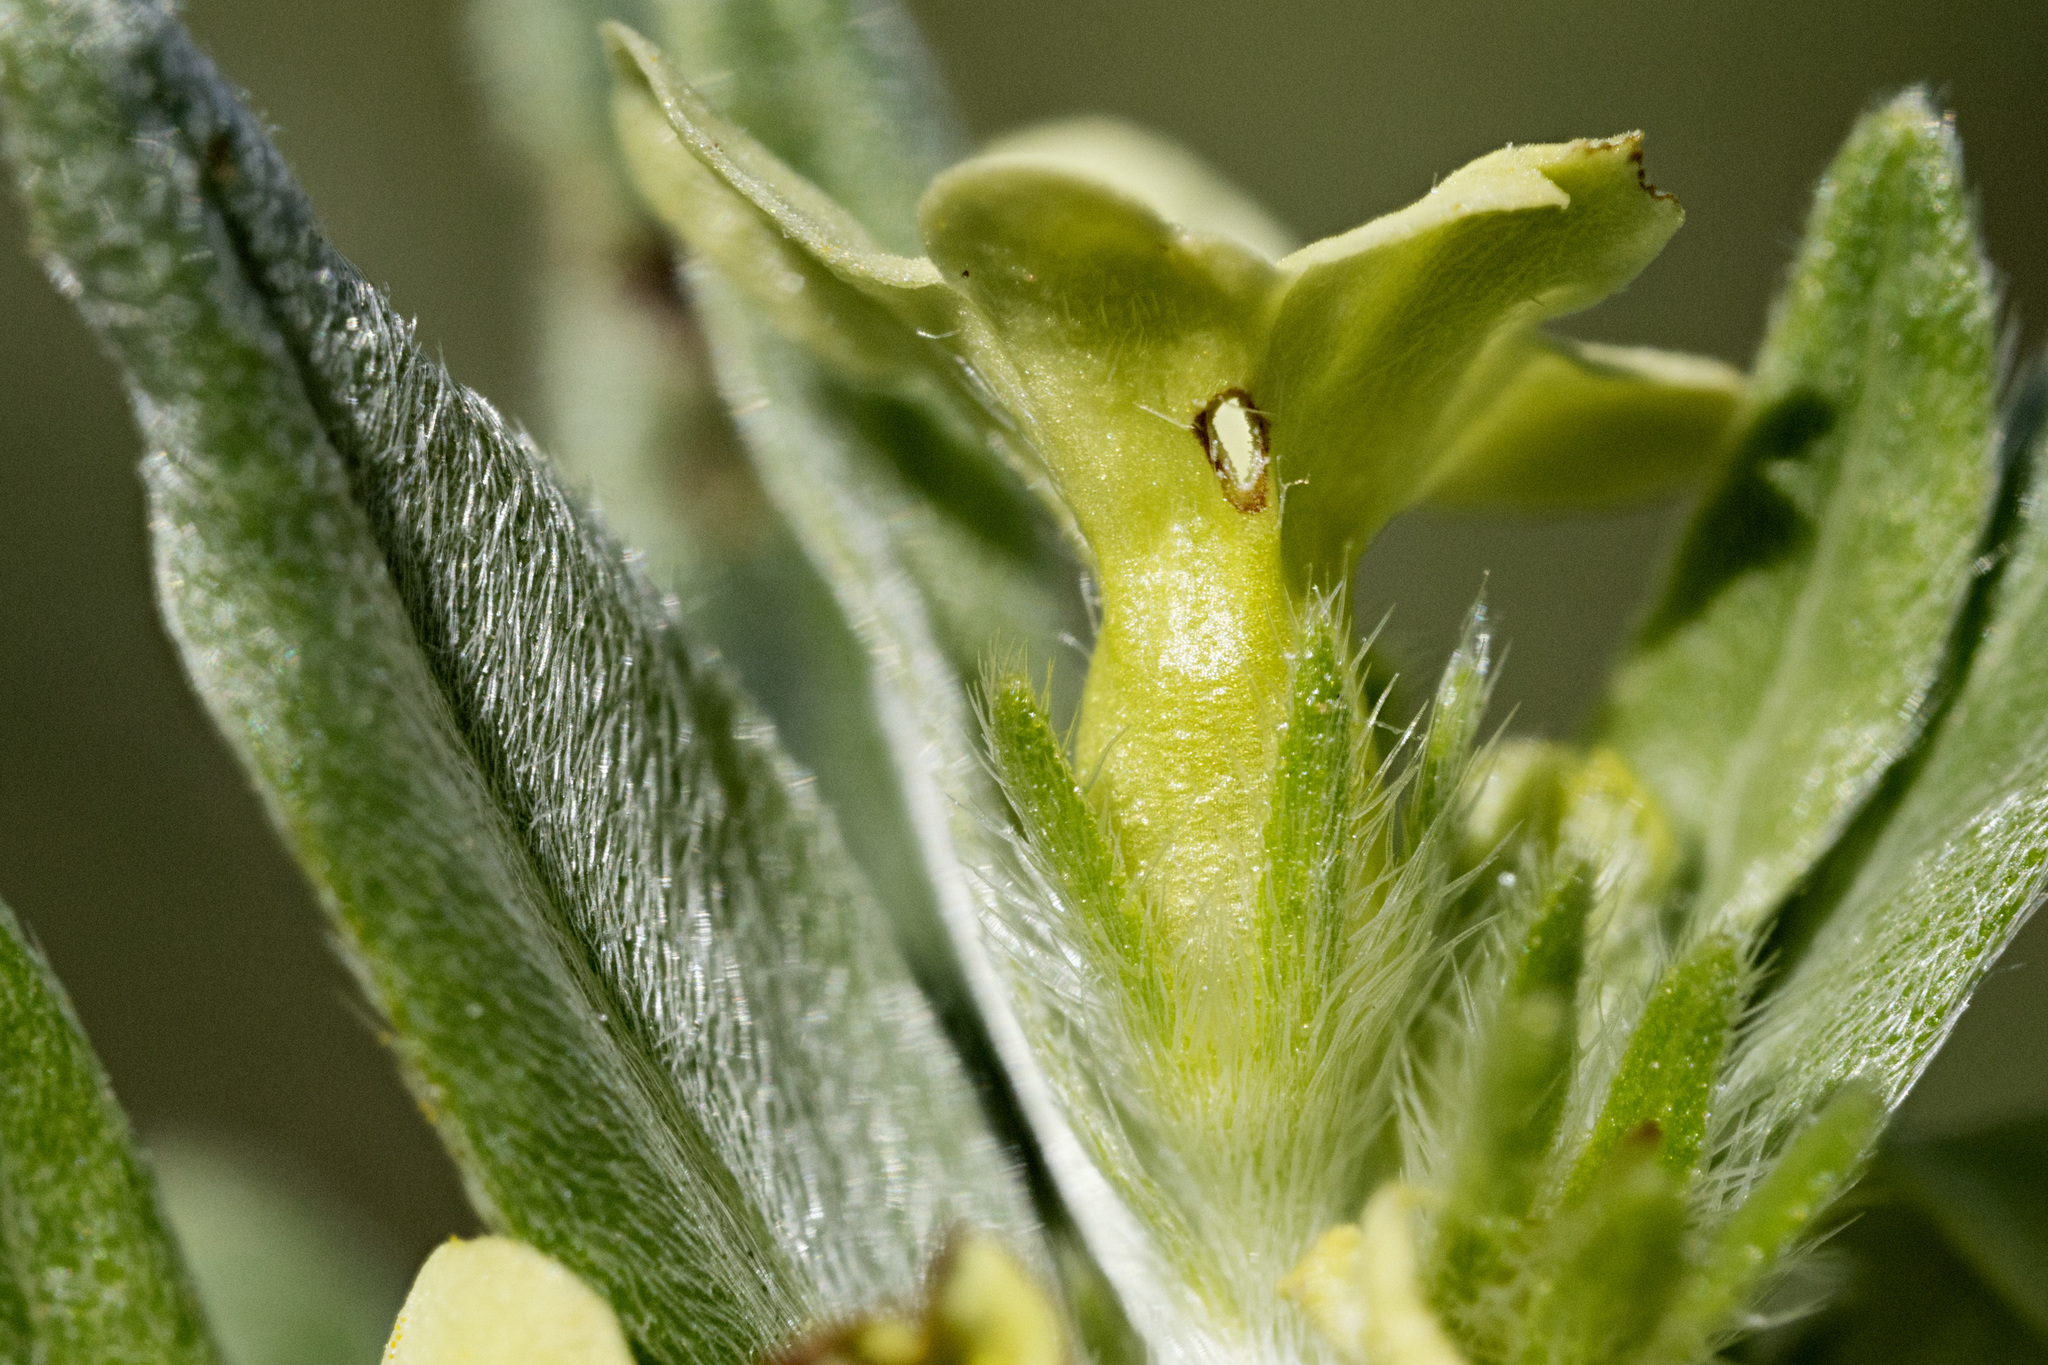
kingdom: Plantae
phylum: Tracheophyta
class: Magnoliopsida
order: Boraginales
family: Boraginaceae
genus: Lithospermum
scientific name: Lithospermum ruderale
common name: Western gromwell
